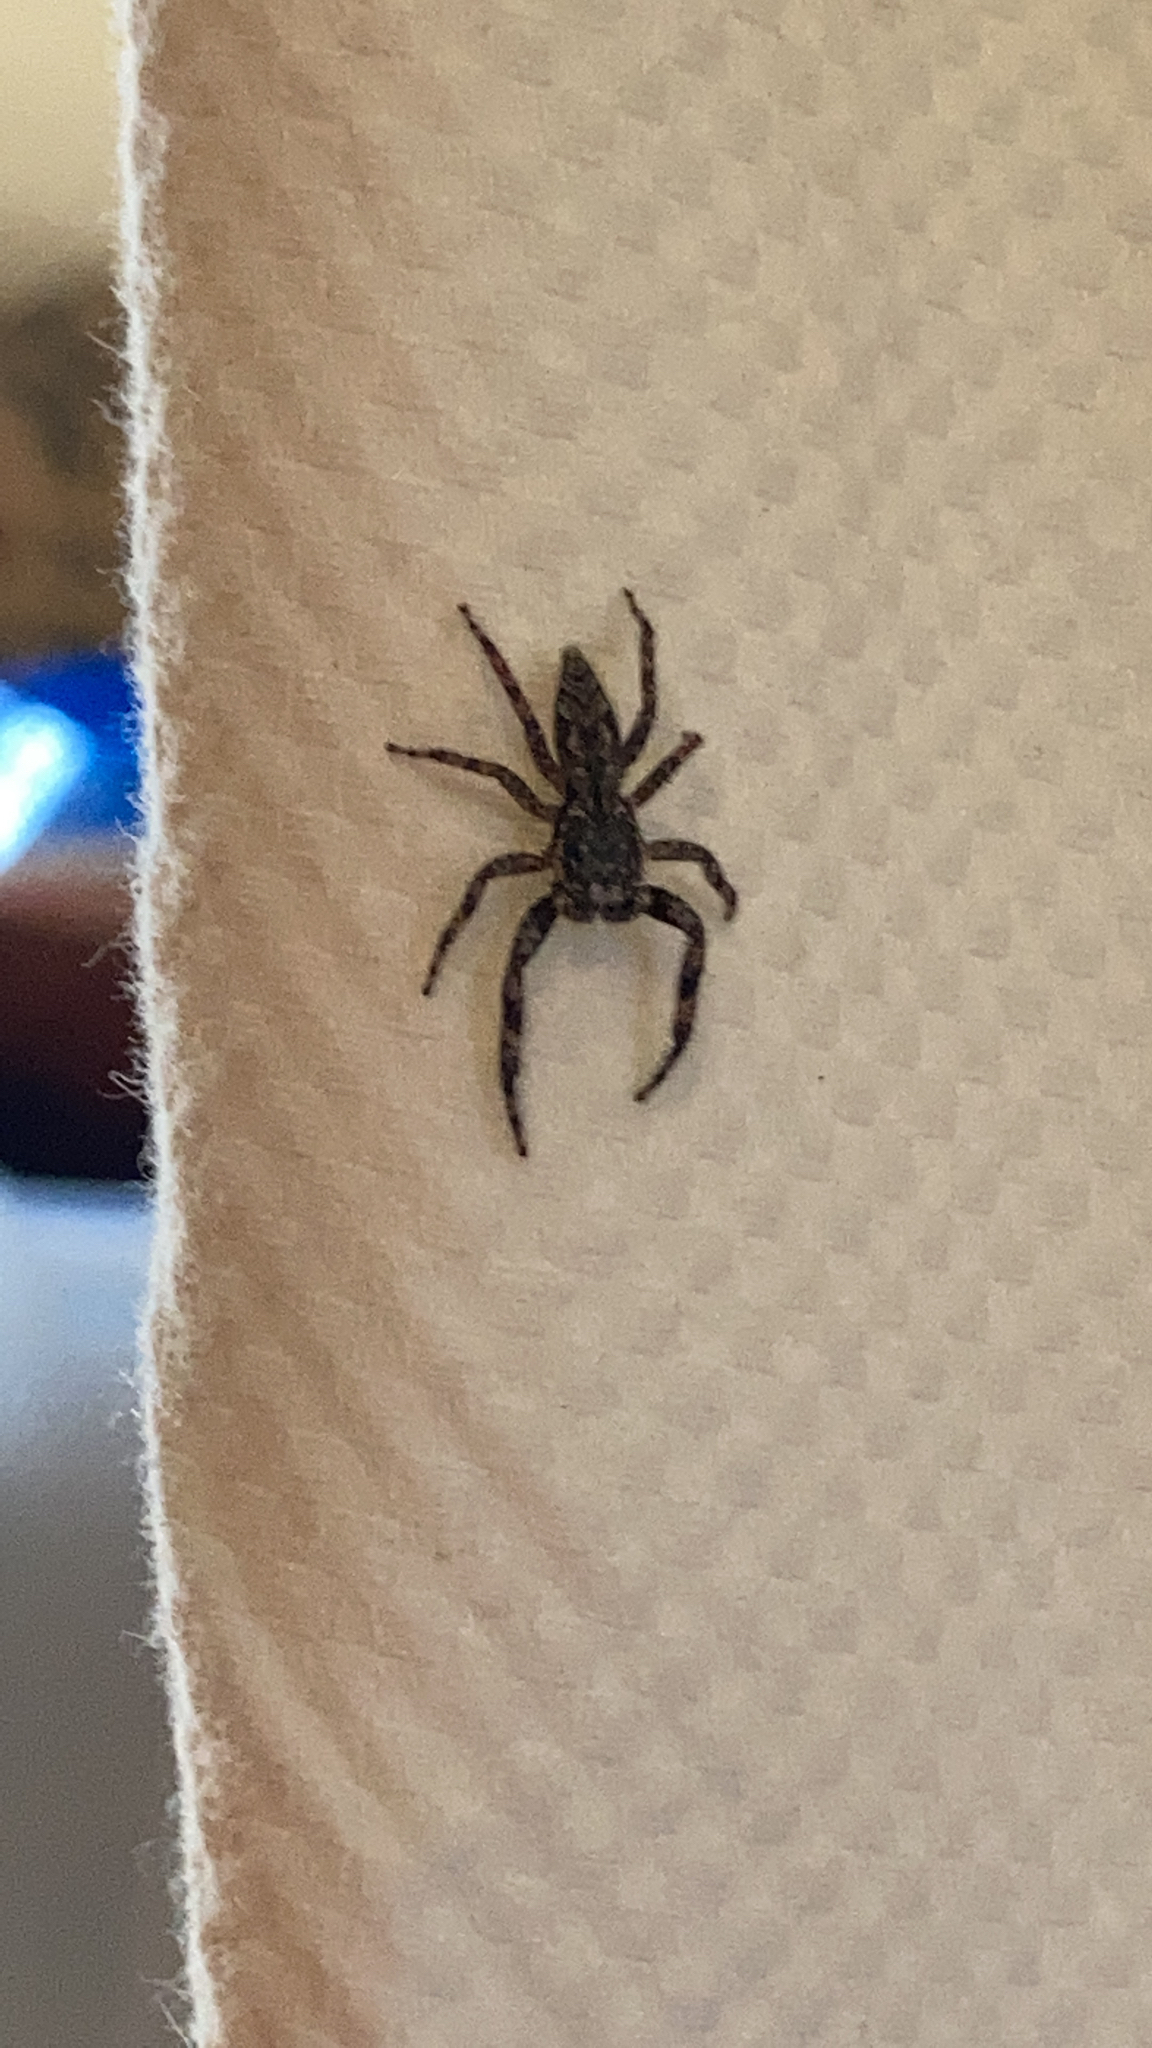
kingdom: Animalia
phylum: Arthropoda
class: Arachnida
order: Araneae
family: Salticidae
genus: Platycryptus
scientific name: Platycryptus undatus
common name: Tan jumping spider
